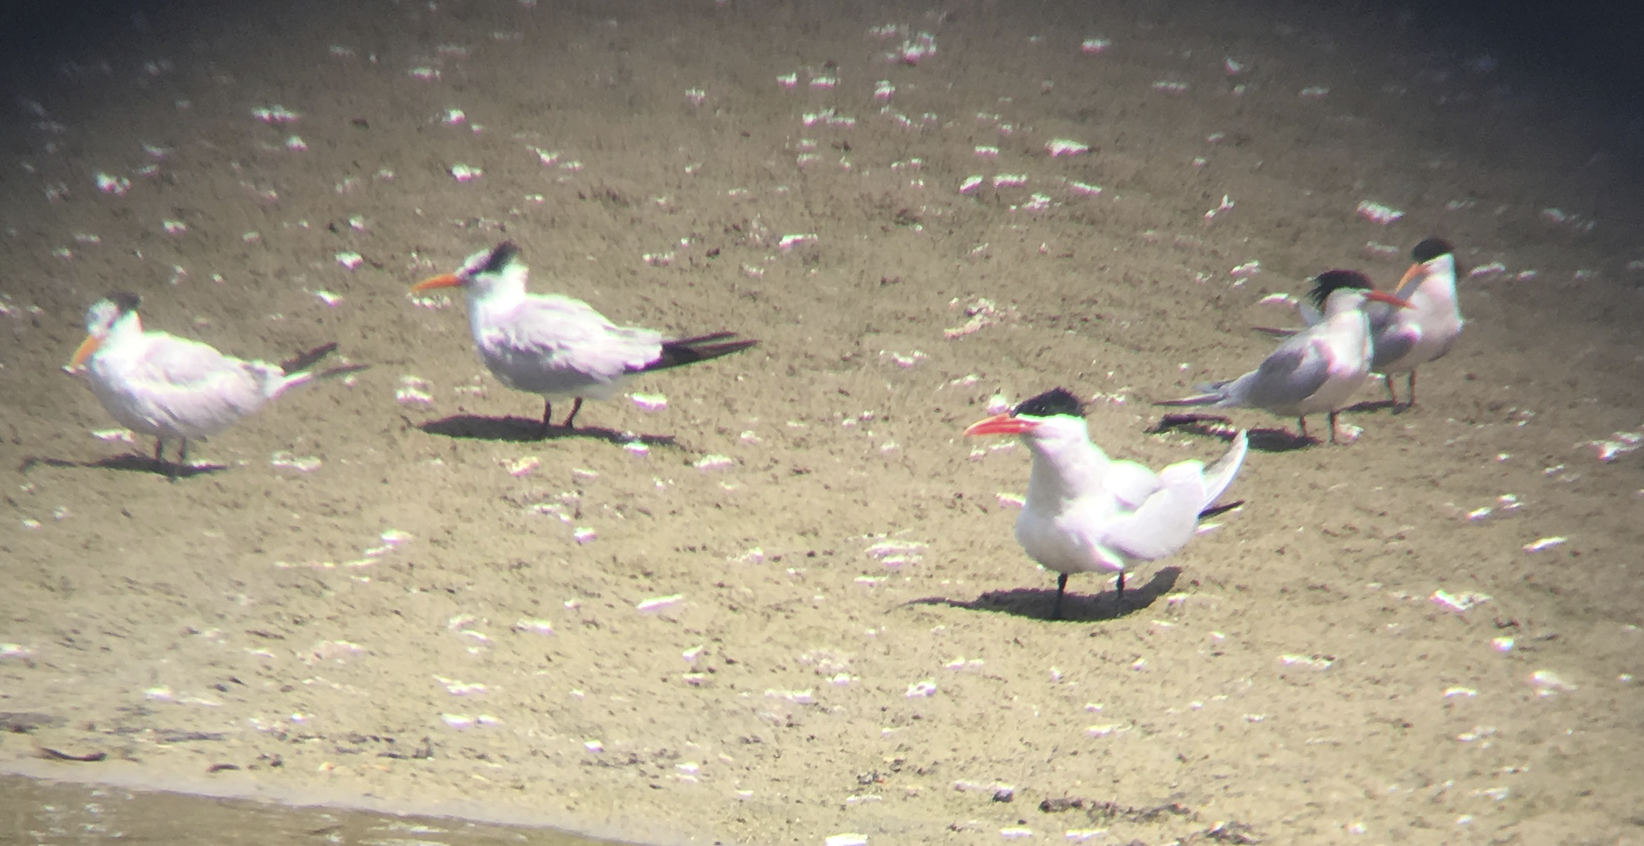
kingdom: Animalia
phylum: Chordata
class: Aves
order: Charadriiformes
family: Laridae
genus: Thalasseus
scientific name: Thalasseus maximus
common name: Royal tern
